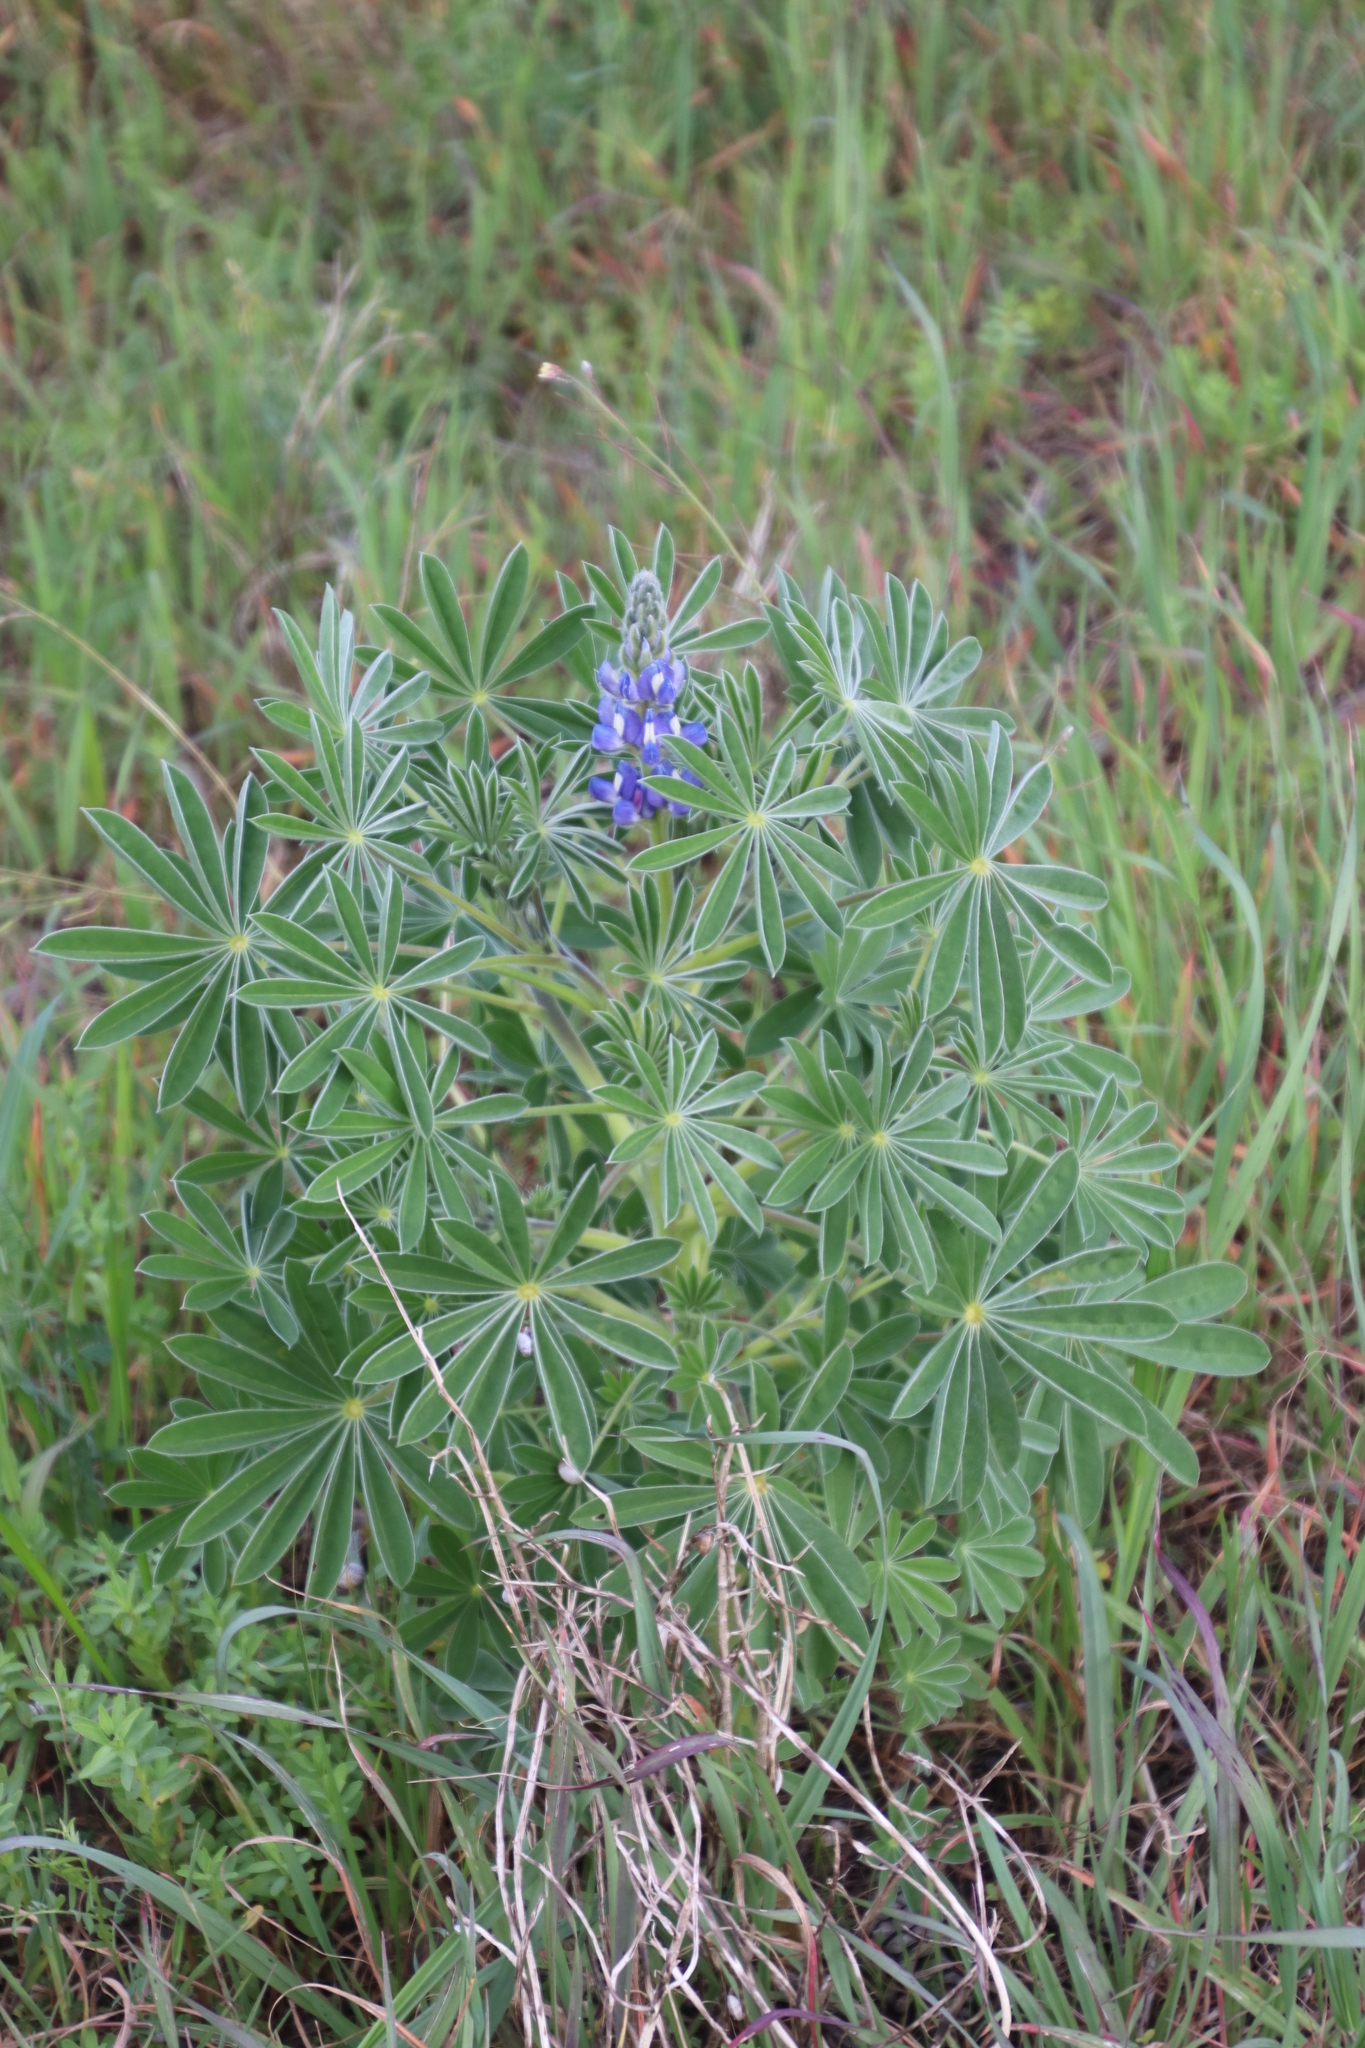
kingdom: Plantae
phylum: Tracheophyta
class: Magnoliopsida
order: Fabales
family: Fabaceae
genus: Lupinus
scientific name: Lupinus cosentinii
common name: Hairy blue lupin
